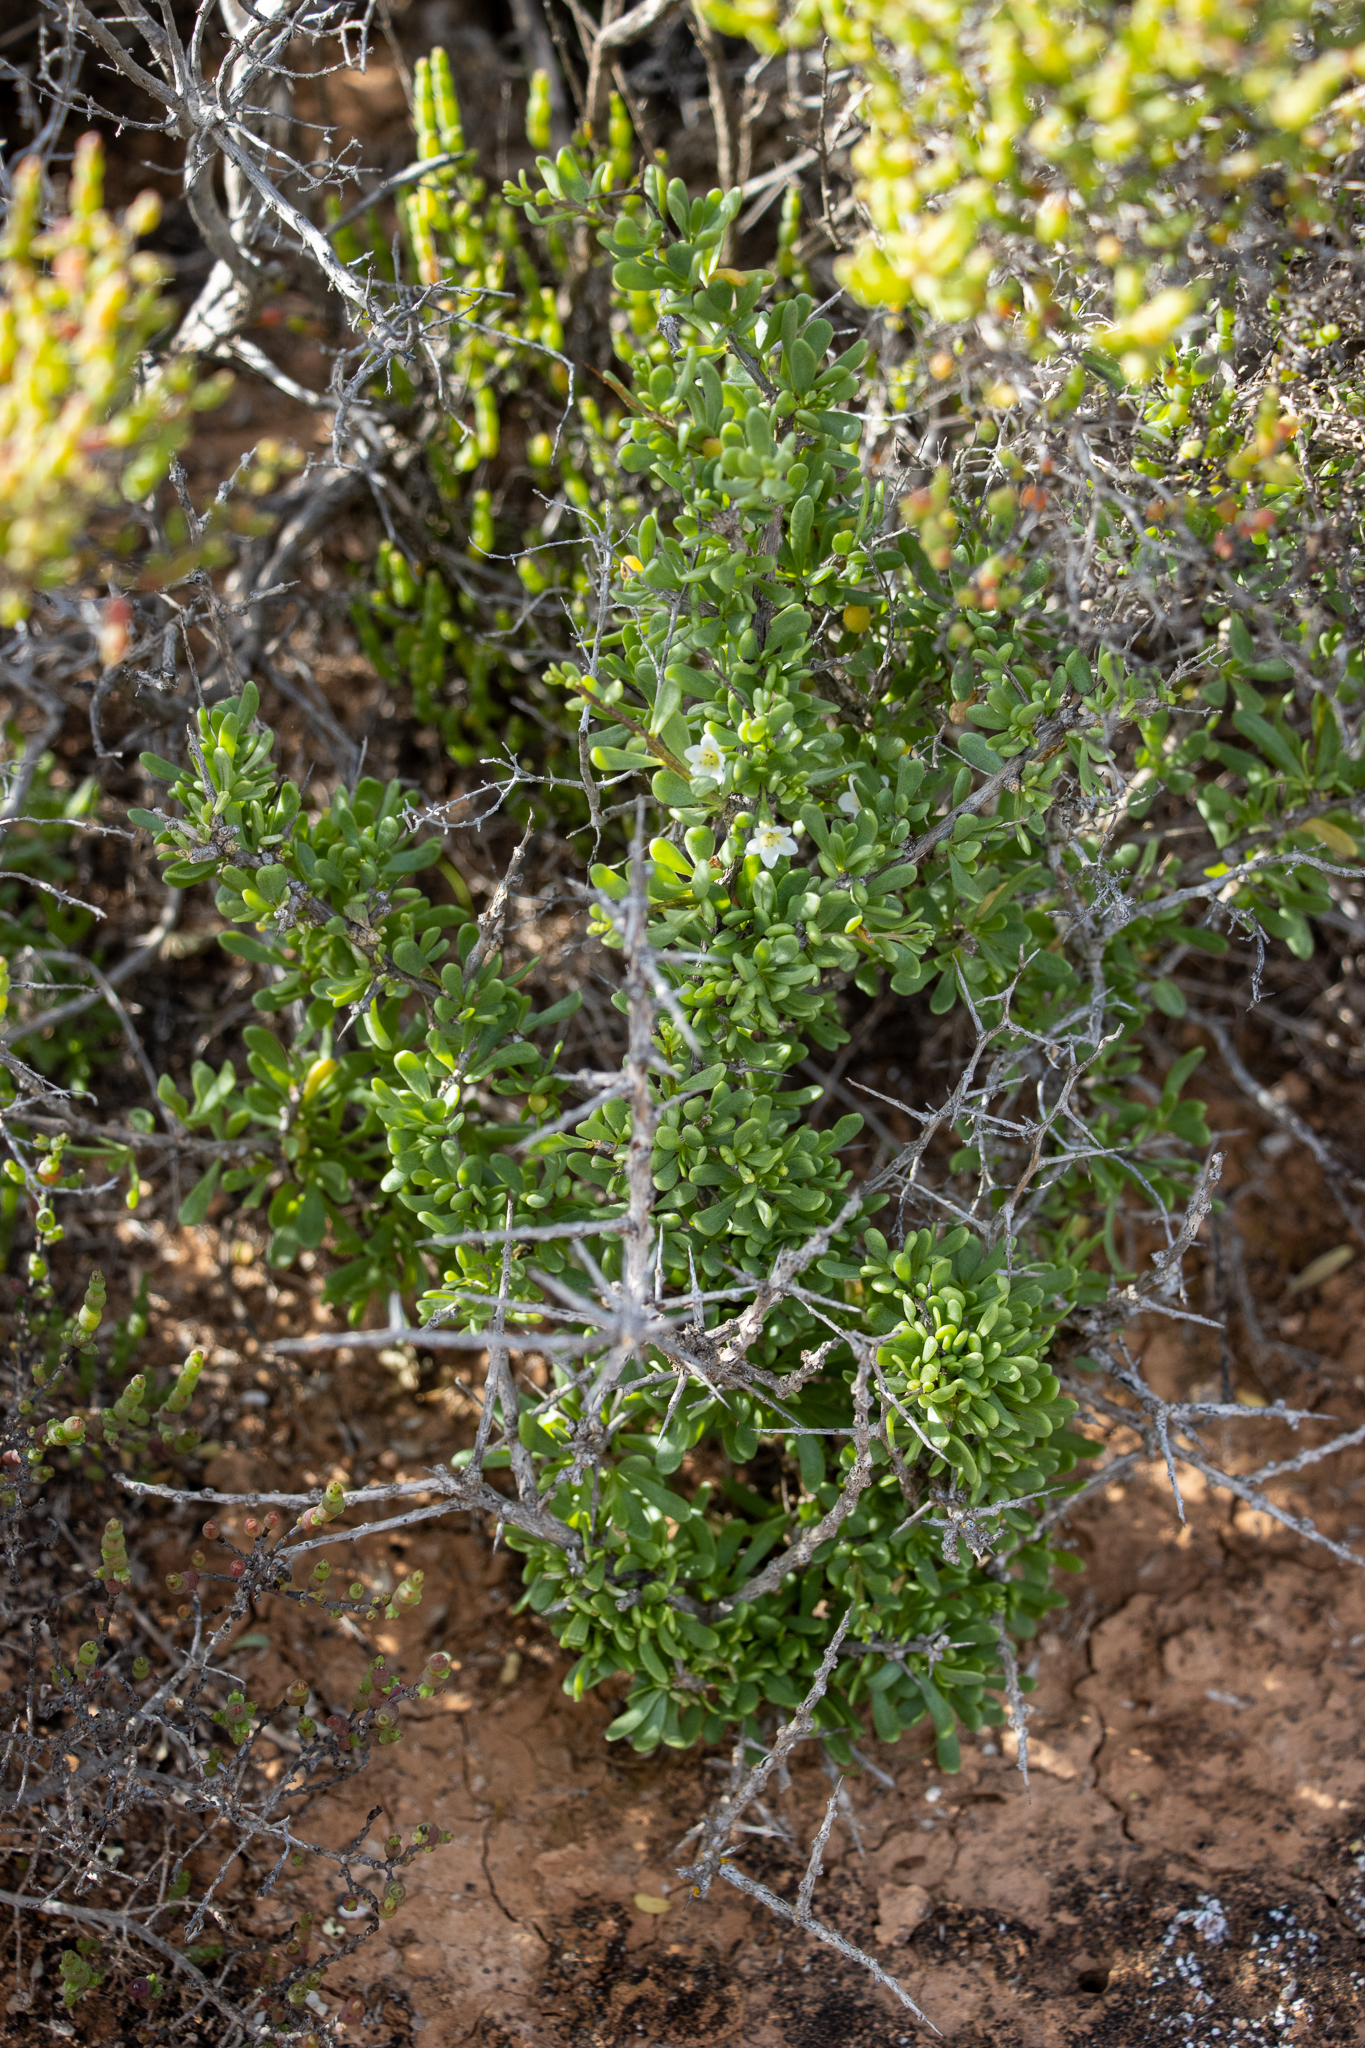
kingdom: Plantae
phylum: Tracheophyta
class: Magnoliopsida
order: Solanales
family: Solanaceae
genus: Lycium
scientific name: Lycium australe
